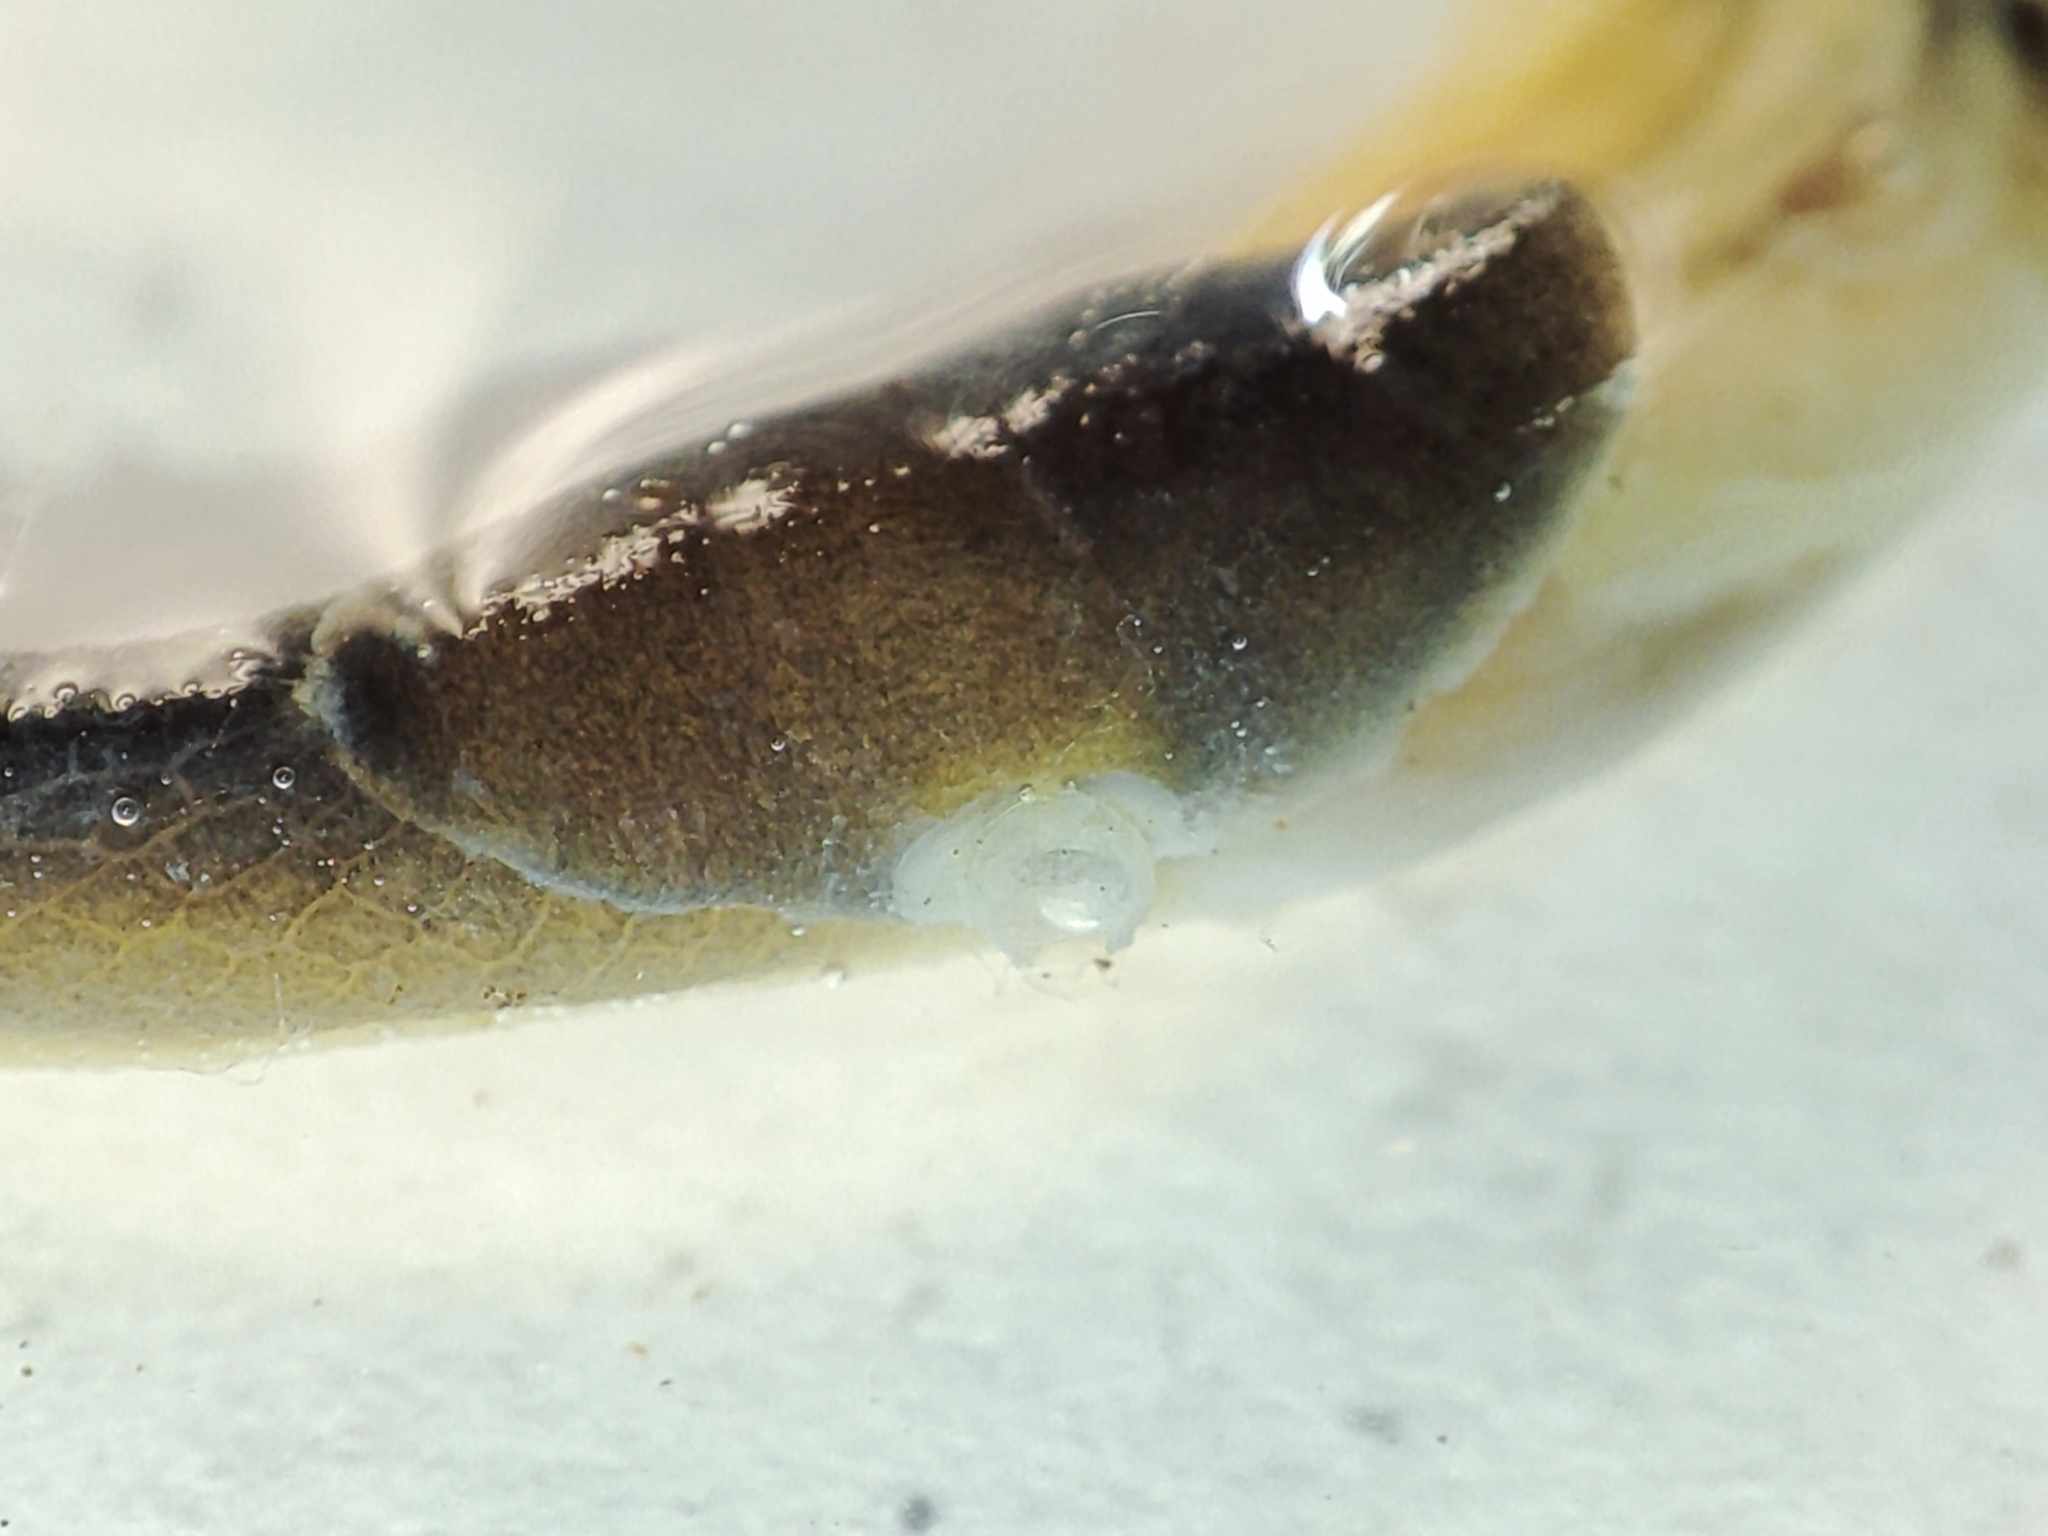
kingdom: Animalia
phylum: Mollusca
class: Gastropoda
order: Stylommatophora
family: Boettgerillidae
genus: Boettgerilla
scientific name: Boettgerilla pallens
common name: Worm slug
